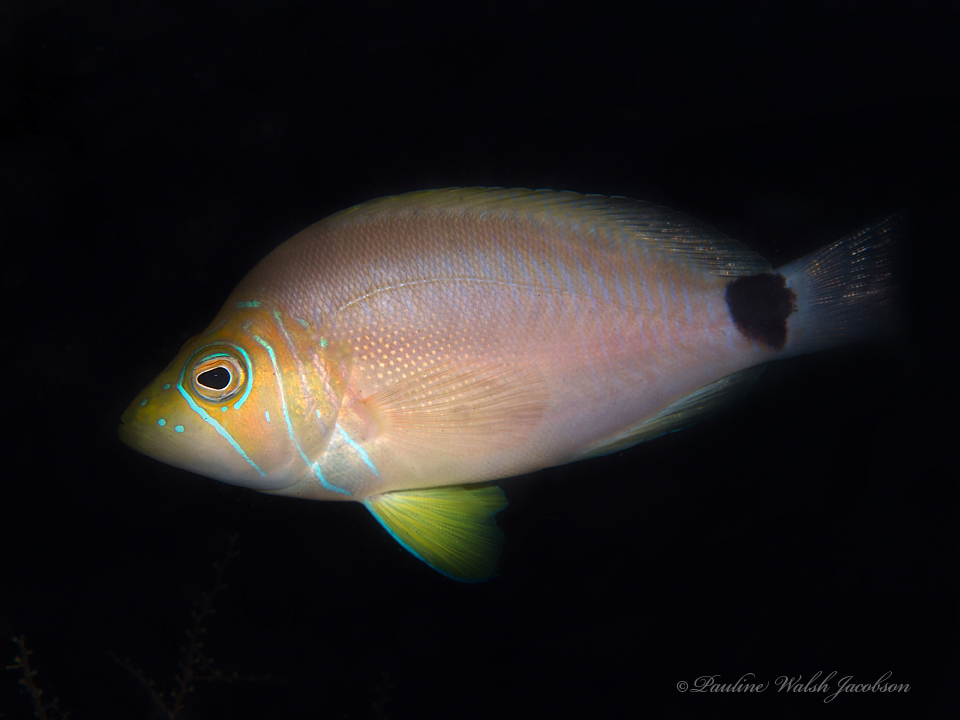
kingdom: Animalia
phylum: Chordata
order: Perciformes
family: Serranidae
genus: Hypoplectrus
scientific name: Hypoplectrus unicolor
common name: Butter hamlet
